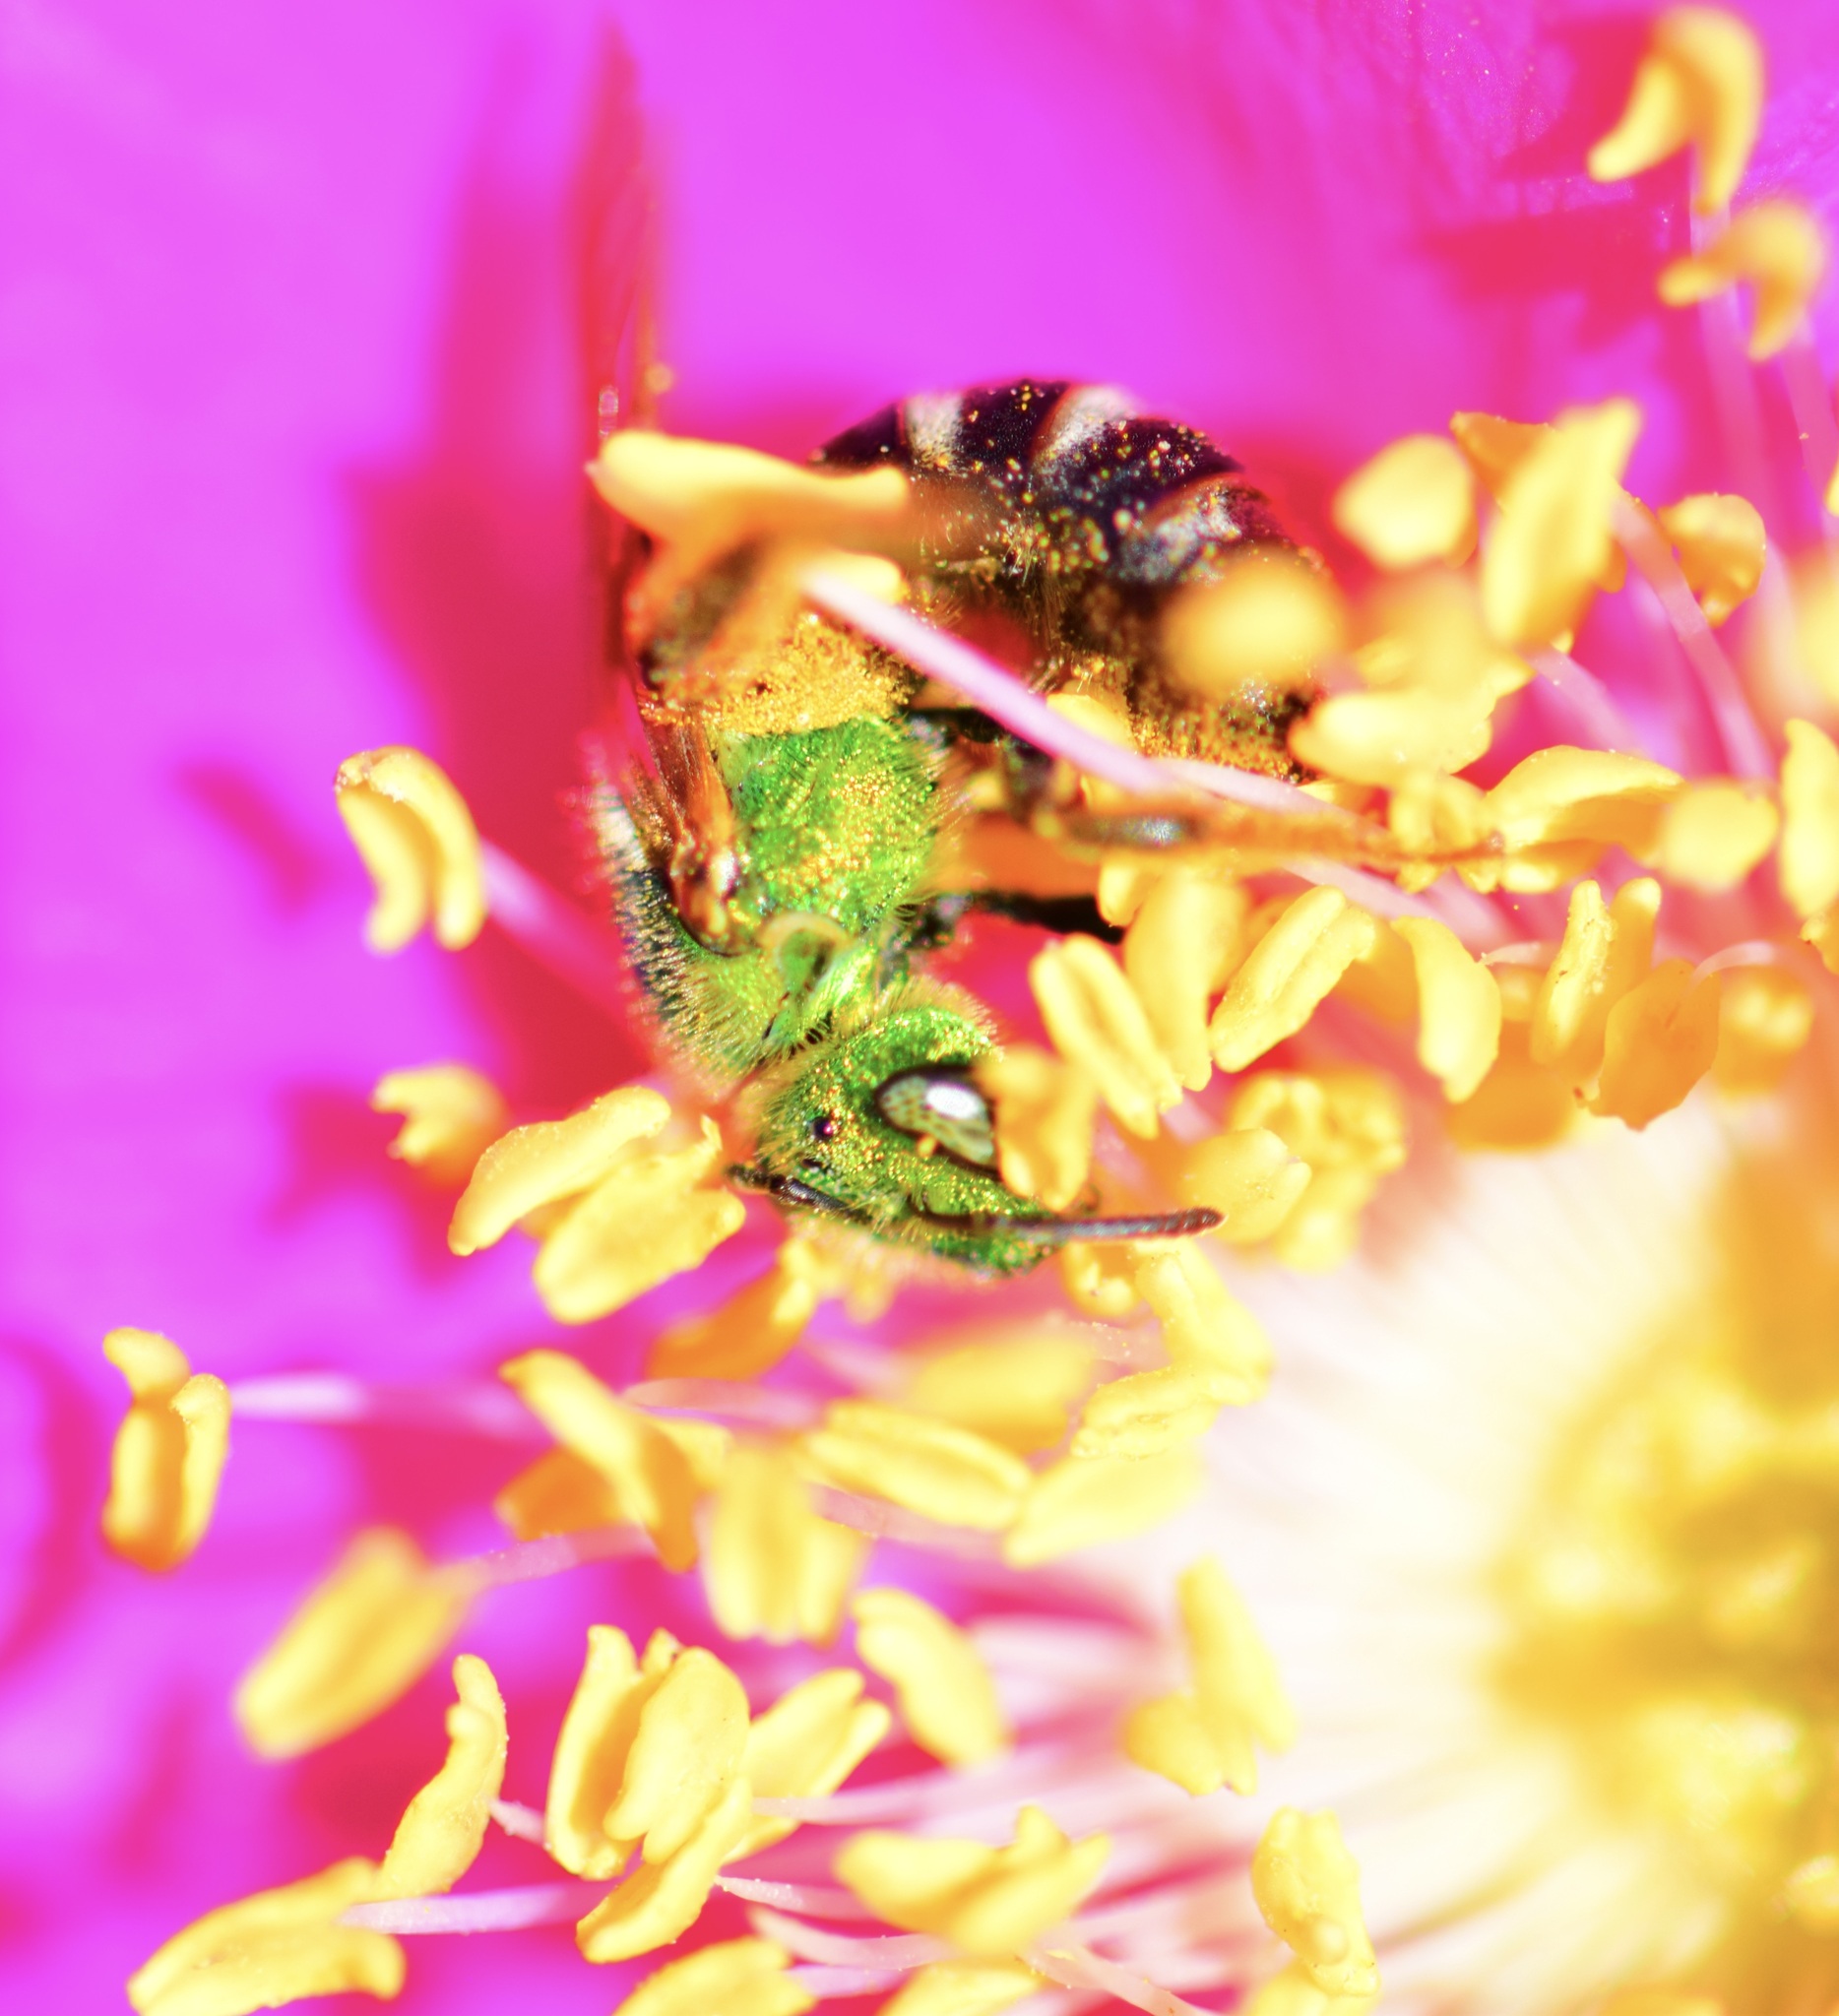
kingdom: Animalia
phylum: Arthropoda
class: Insecta
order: Hymenoptera
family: Halictidae
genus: Agapostemon
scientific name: Agapostemon virescens
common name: Bicolored striped sweat bee
